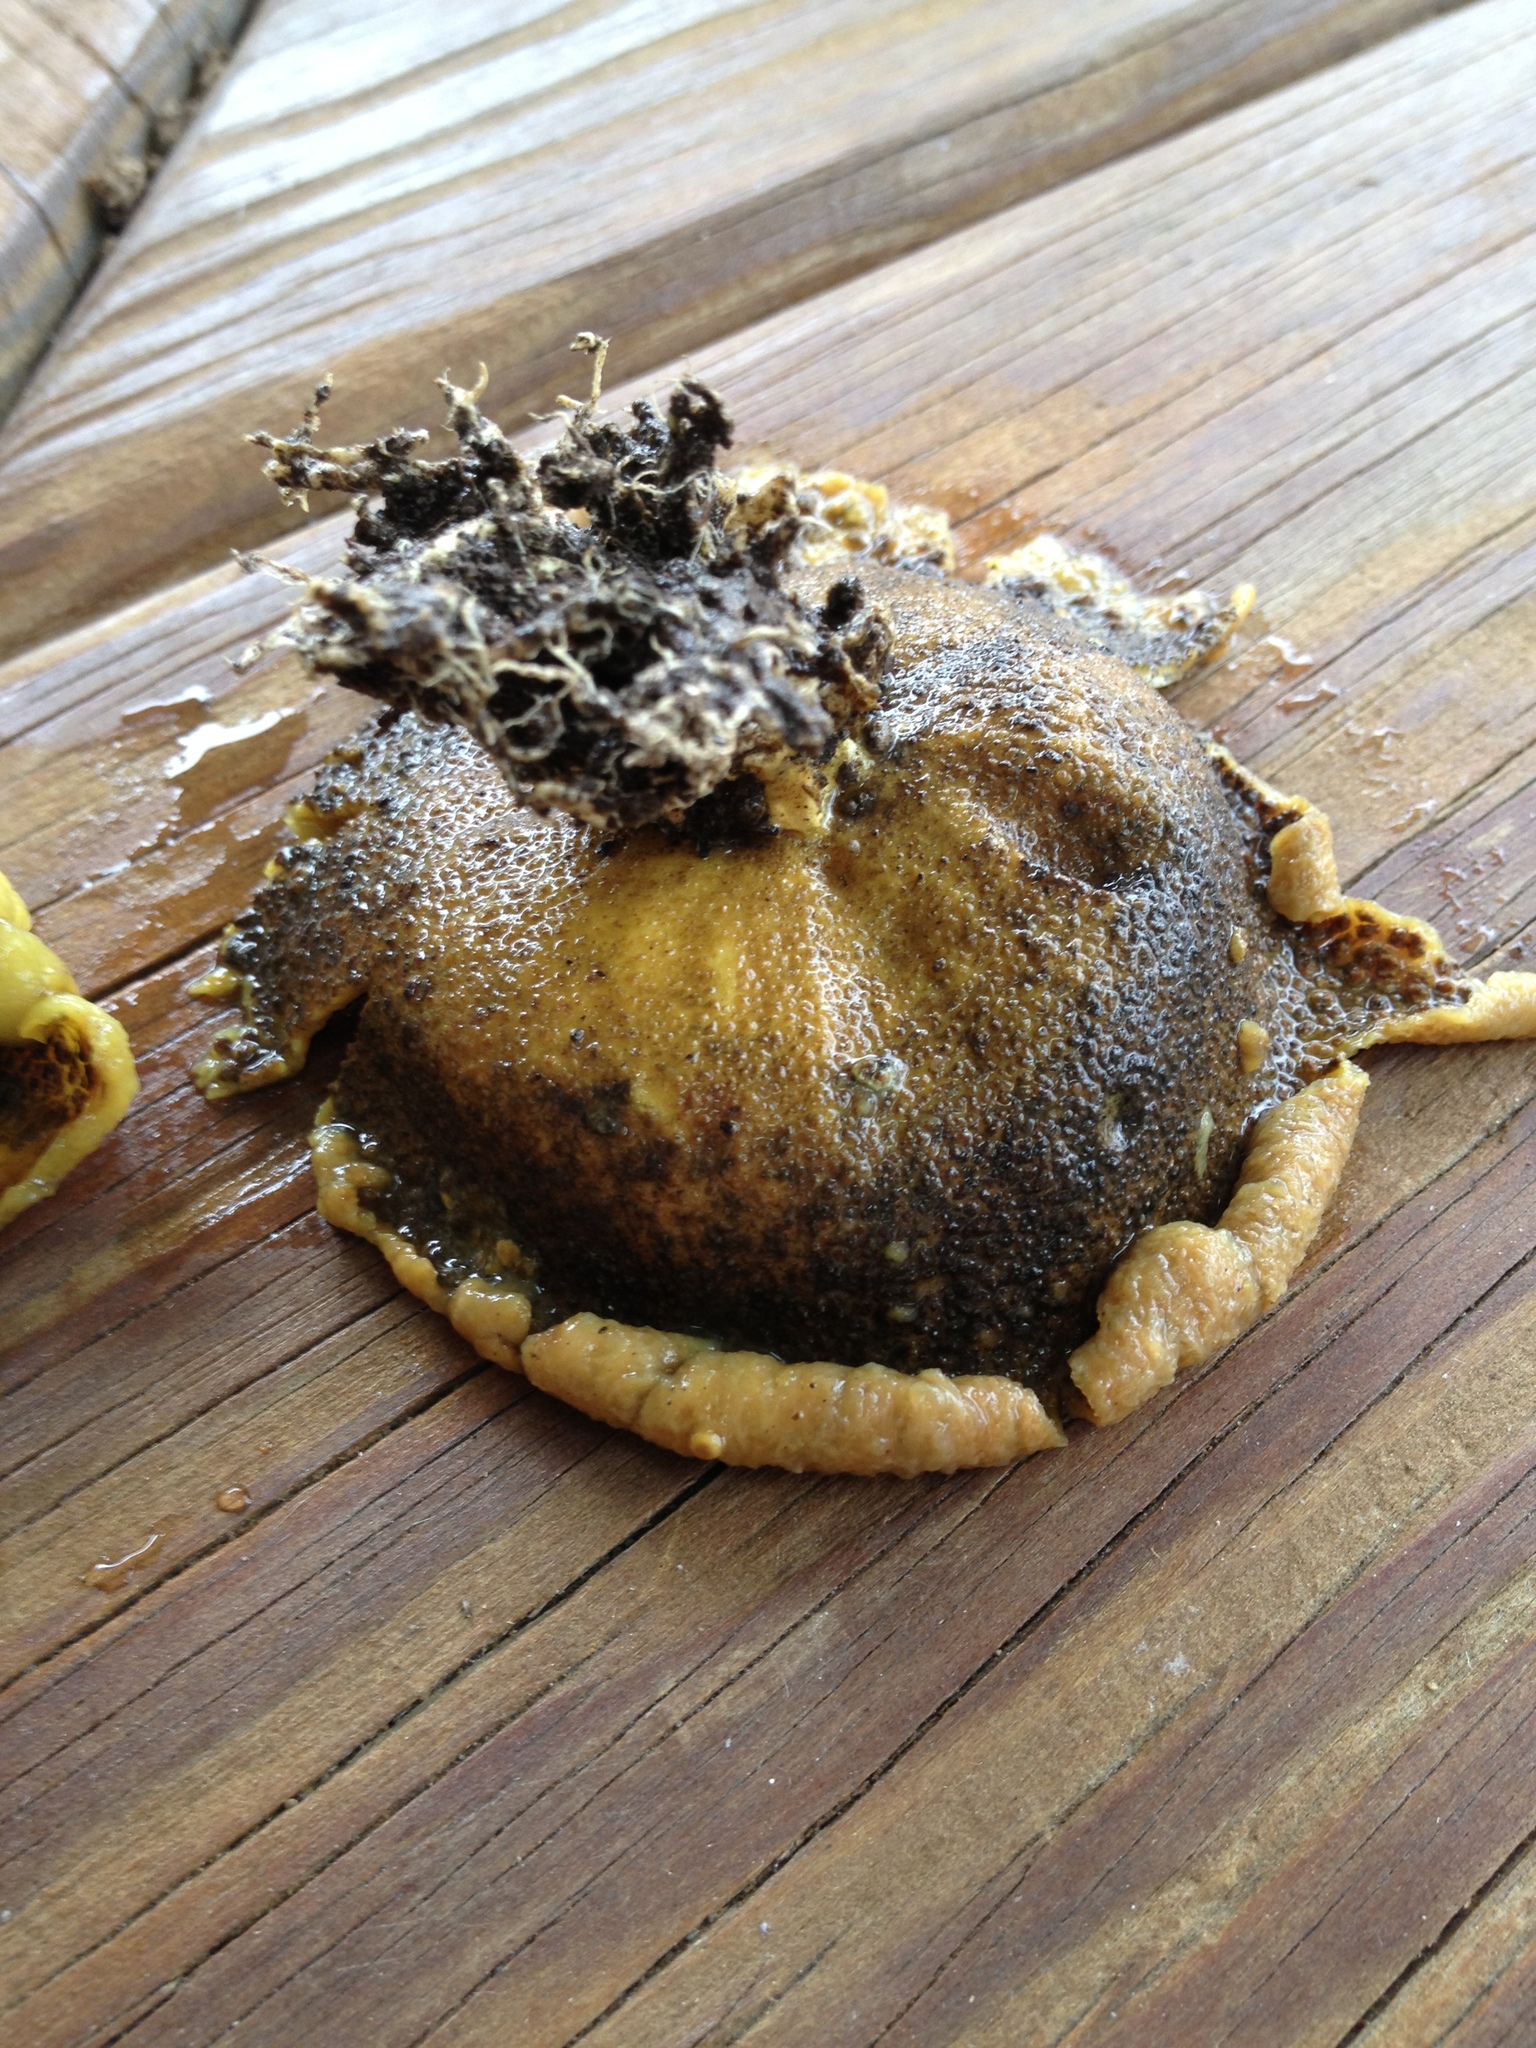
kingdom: Fungi
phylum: Basidiomycota
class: Agaricomycetes
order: Boletales
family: Sclerodermataceae
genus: Scleroderma
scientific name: Scleroderma citrinum
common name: Common earthball
